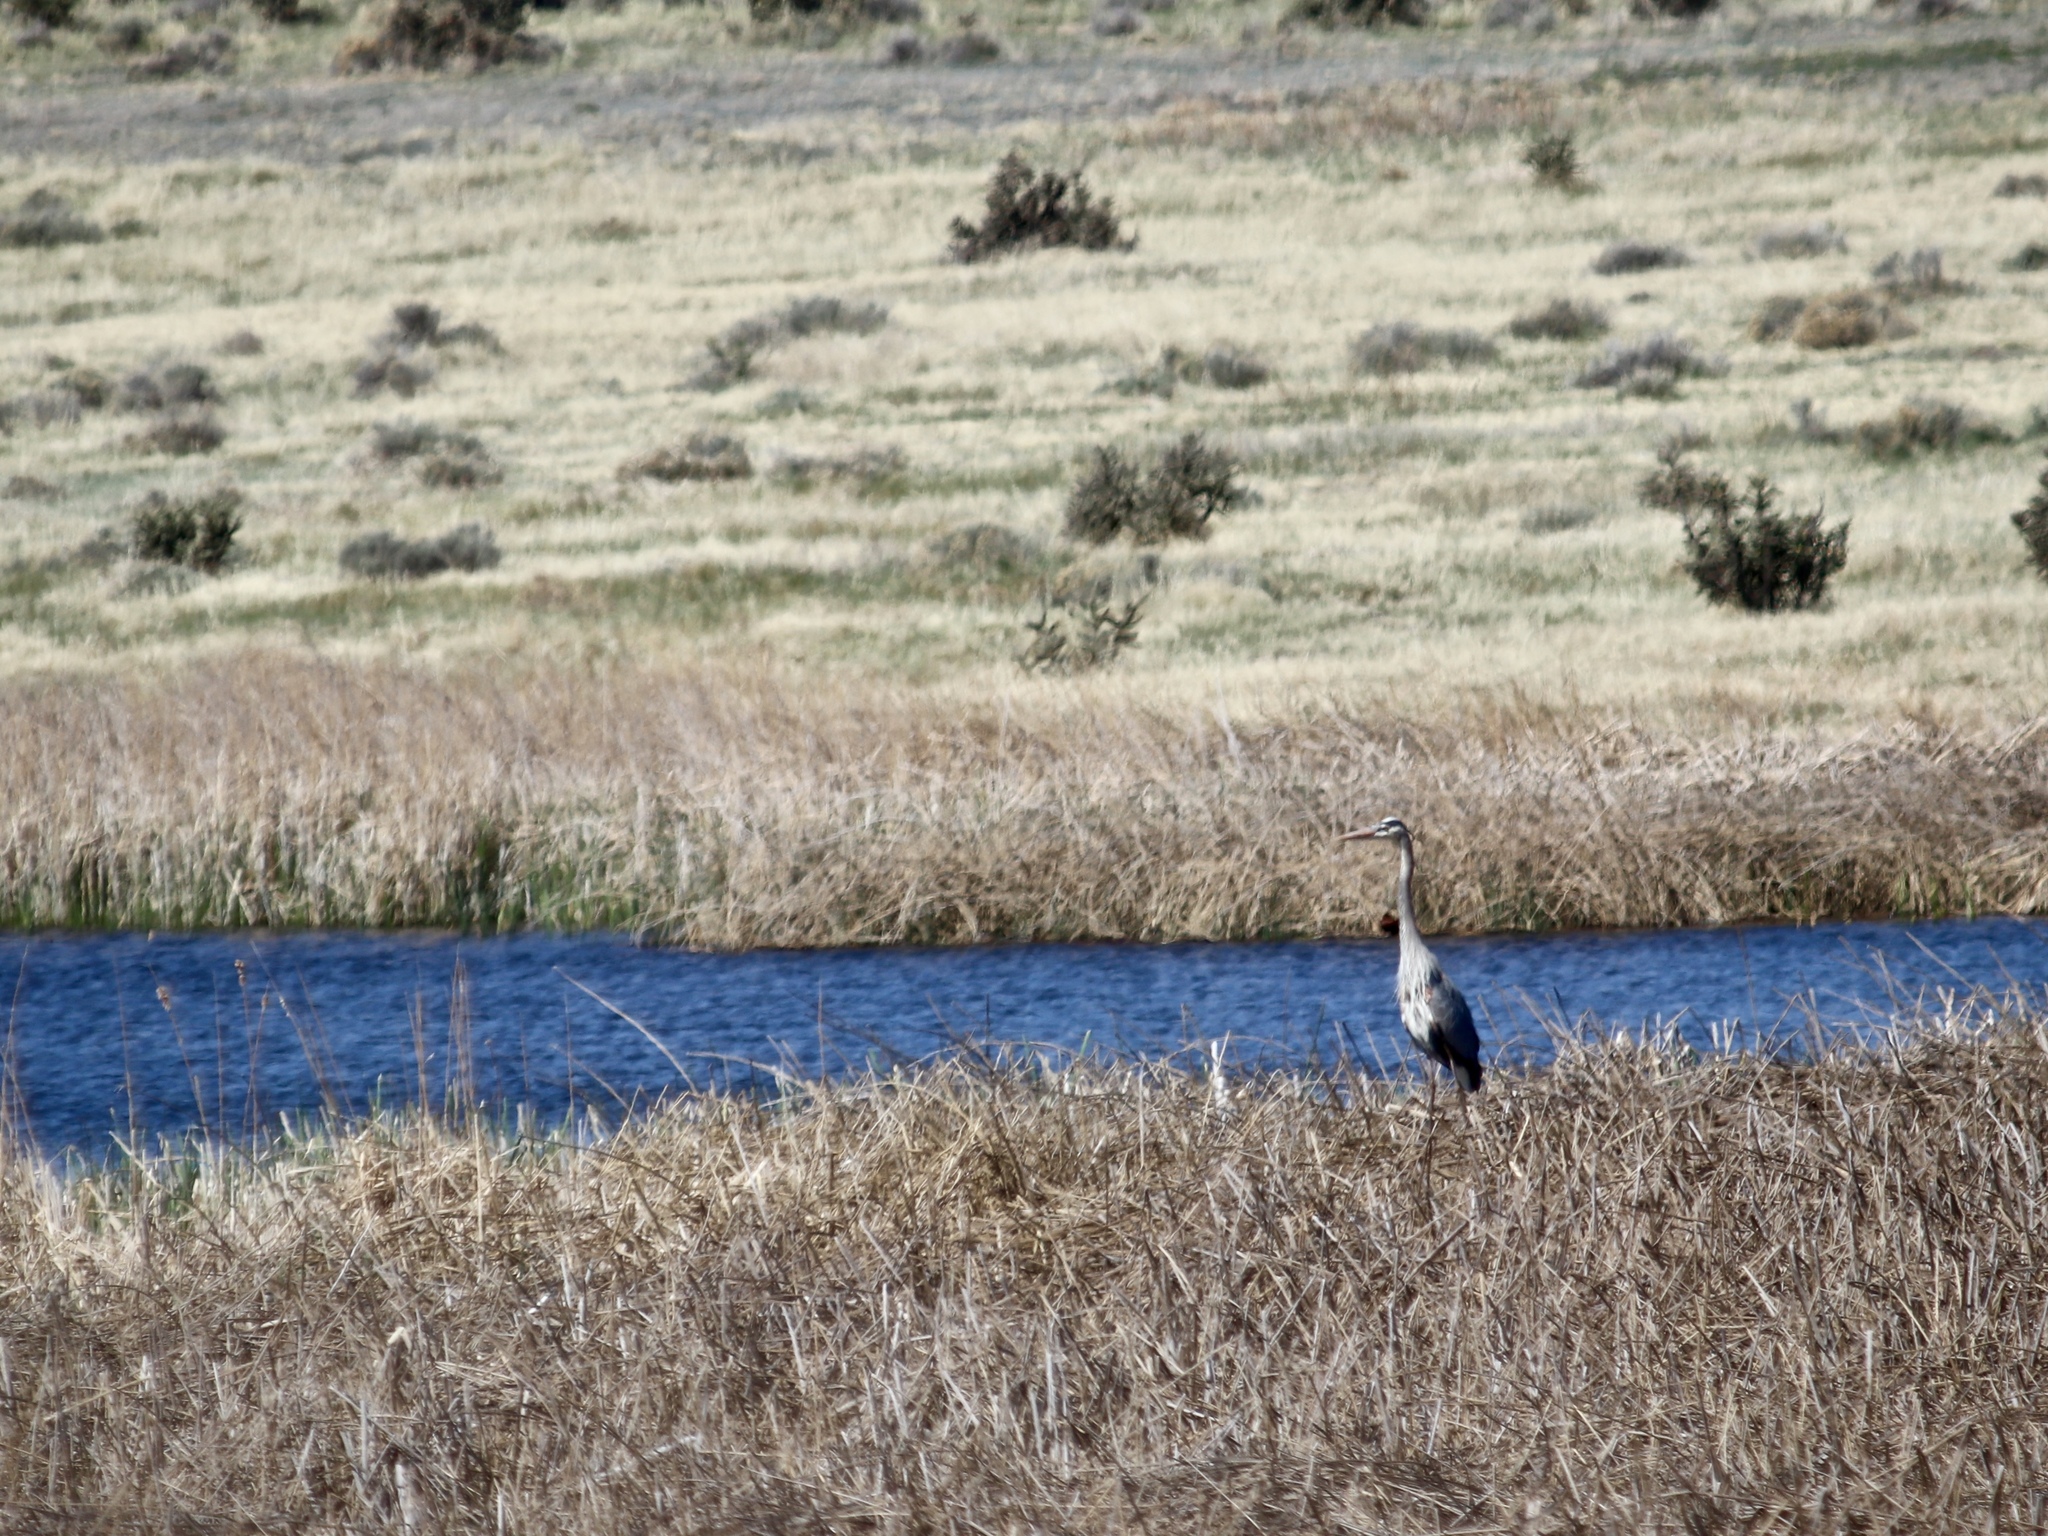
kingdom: Animalia
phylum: Chordata
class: Aves
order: Pelecaniformes
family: Ardeidae
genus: Ardea
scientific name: Ardea herodias
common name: Great blue heron
